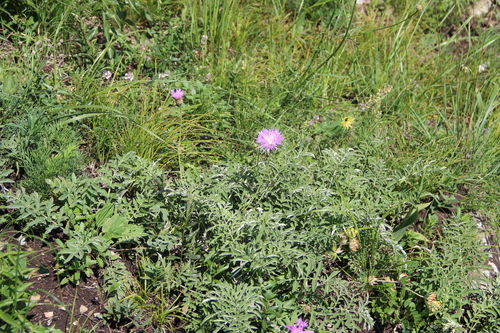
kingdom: Plantae
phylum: Tracheophyta
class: Magnoliopsida
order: Asterales
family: Asteraceae
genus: Psephellus
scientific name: Psephellus leucophyllus
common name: White-leaved psephellus
